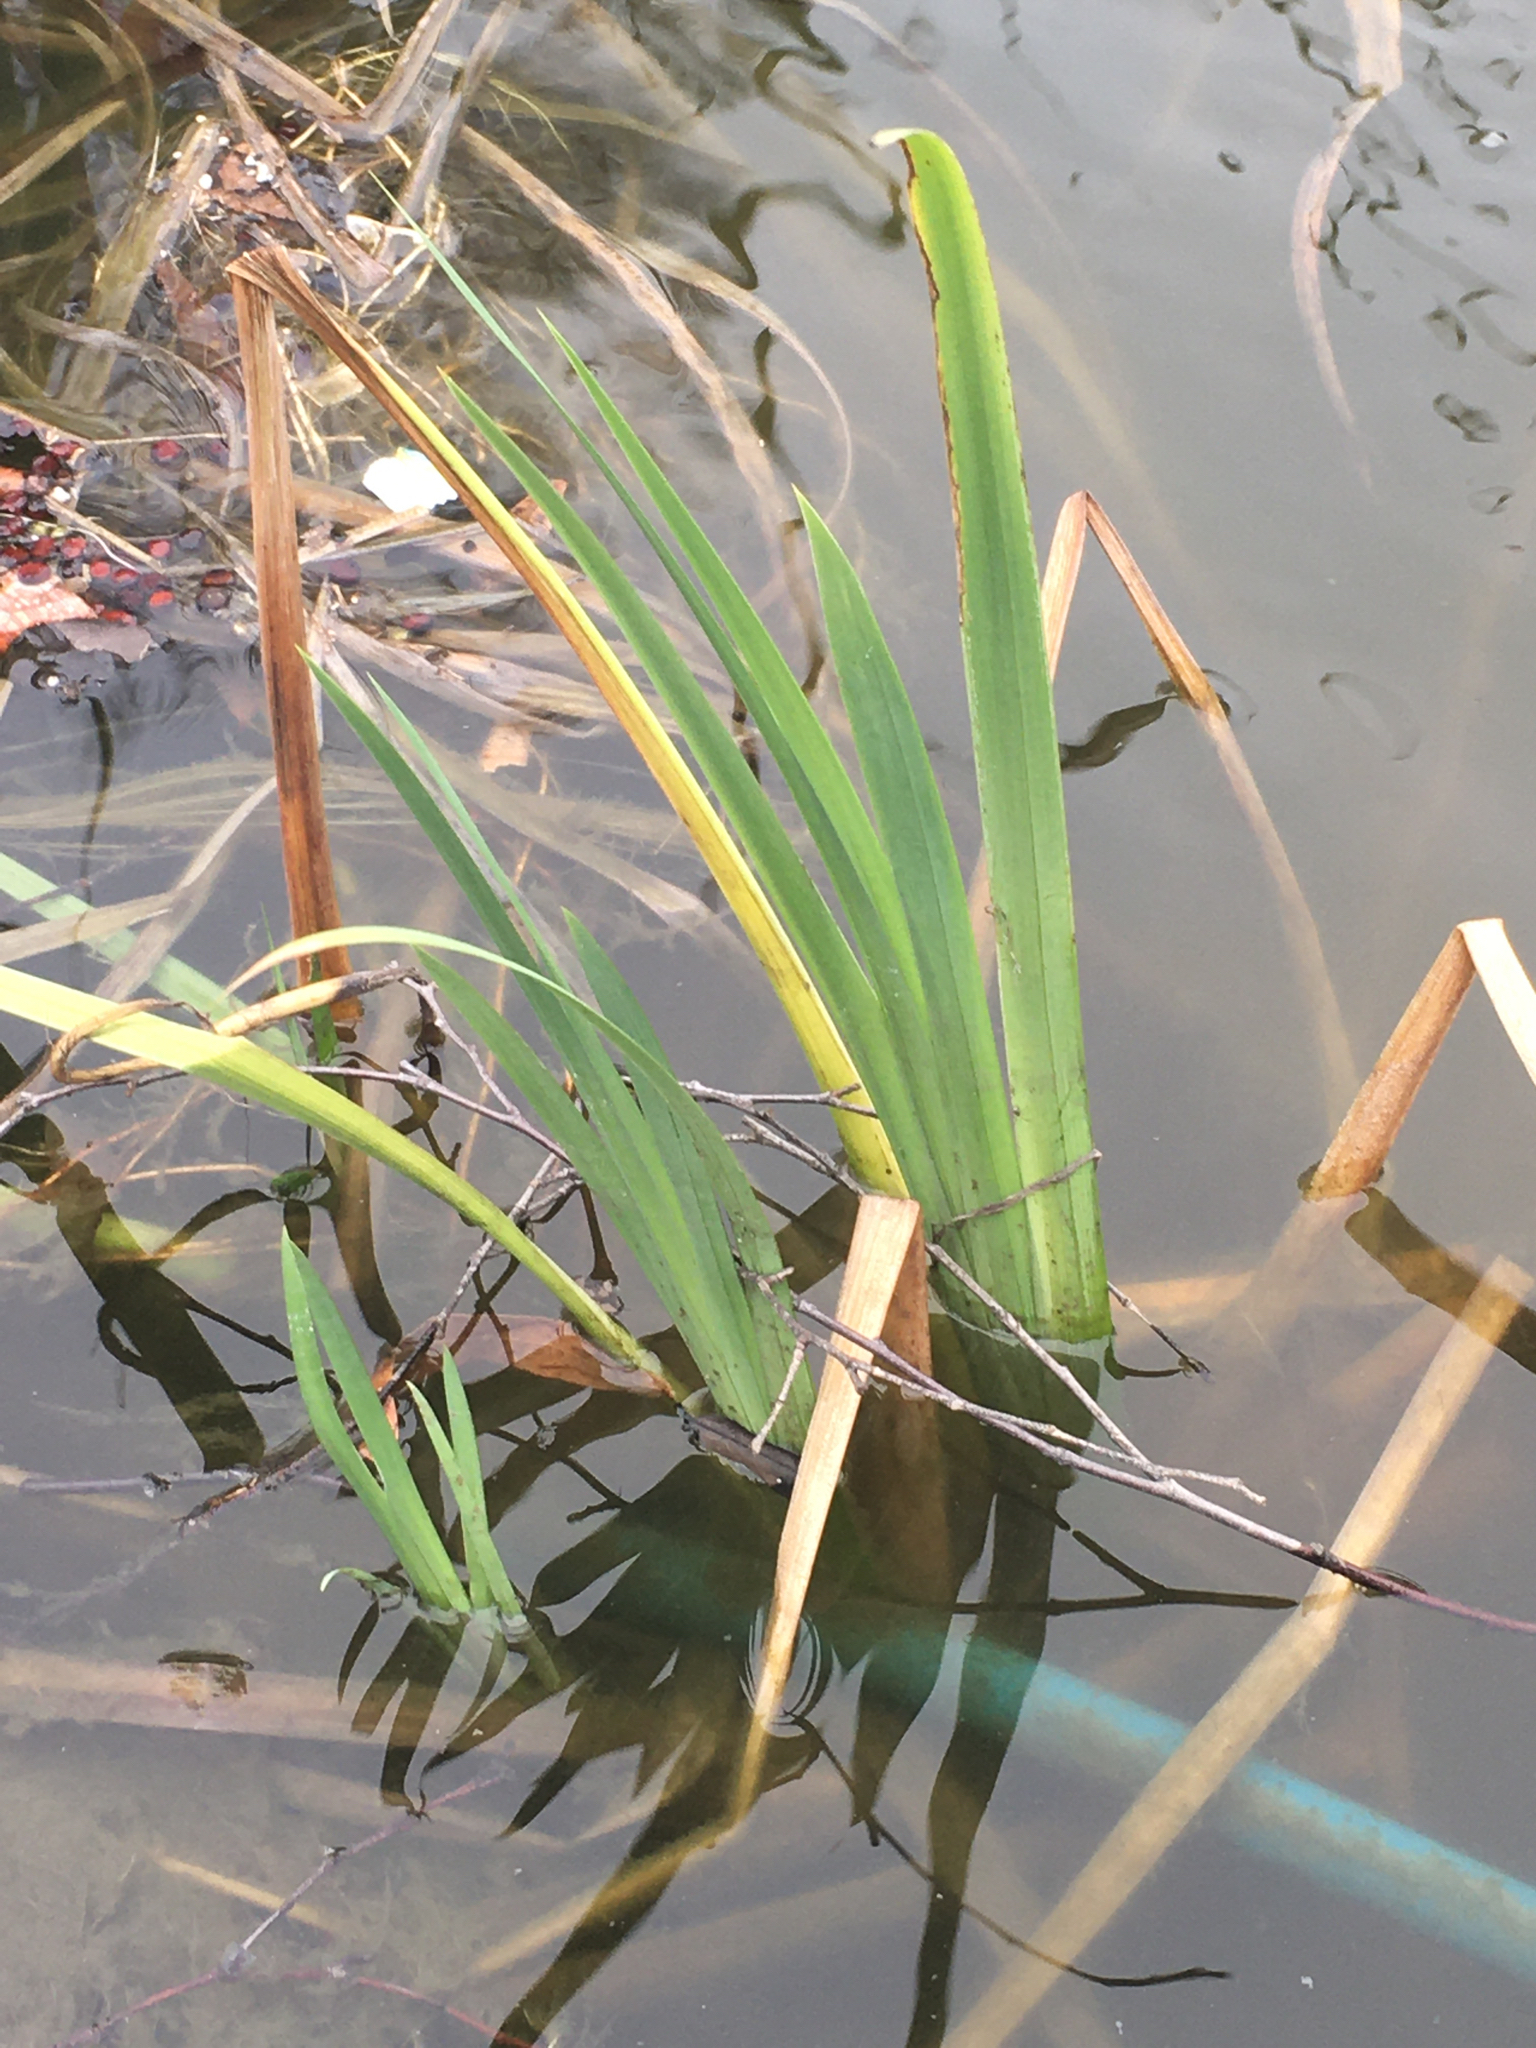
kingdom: Plantae
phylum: Tracheophyta
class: Liliopsida
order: Asparagales
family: Iridaceae
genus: Iris
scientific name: Iris pseudacorus
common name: Yellow flag
